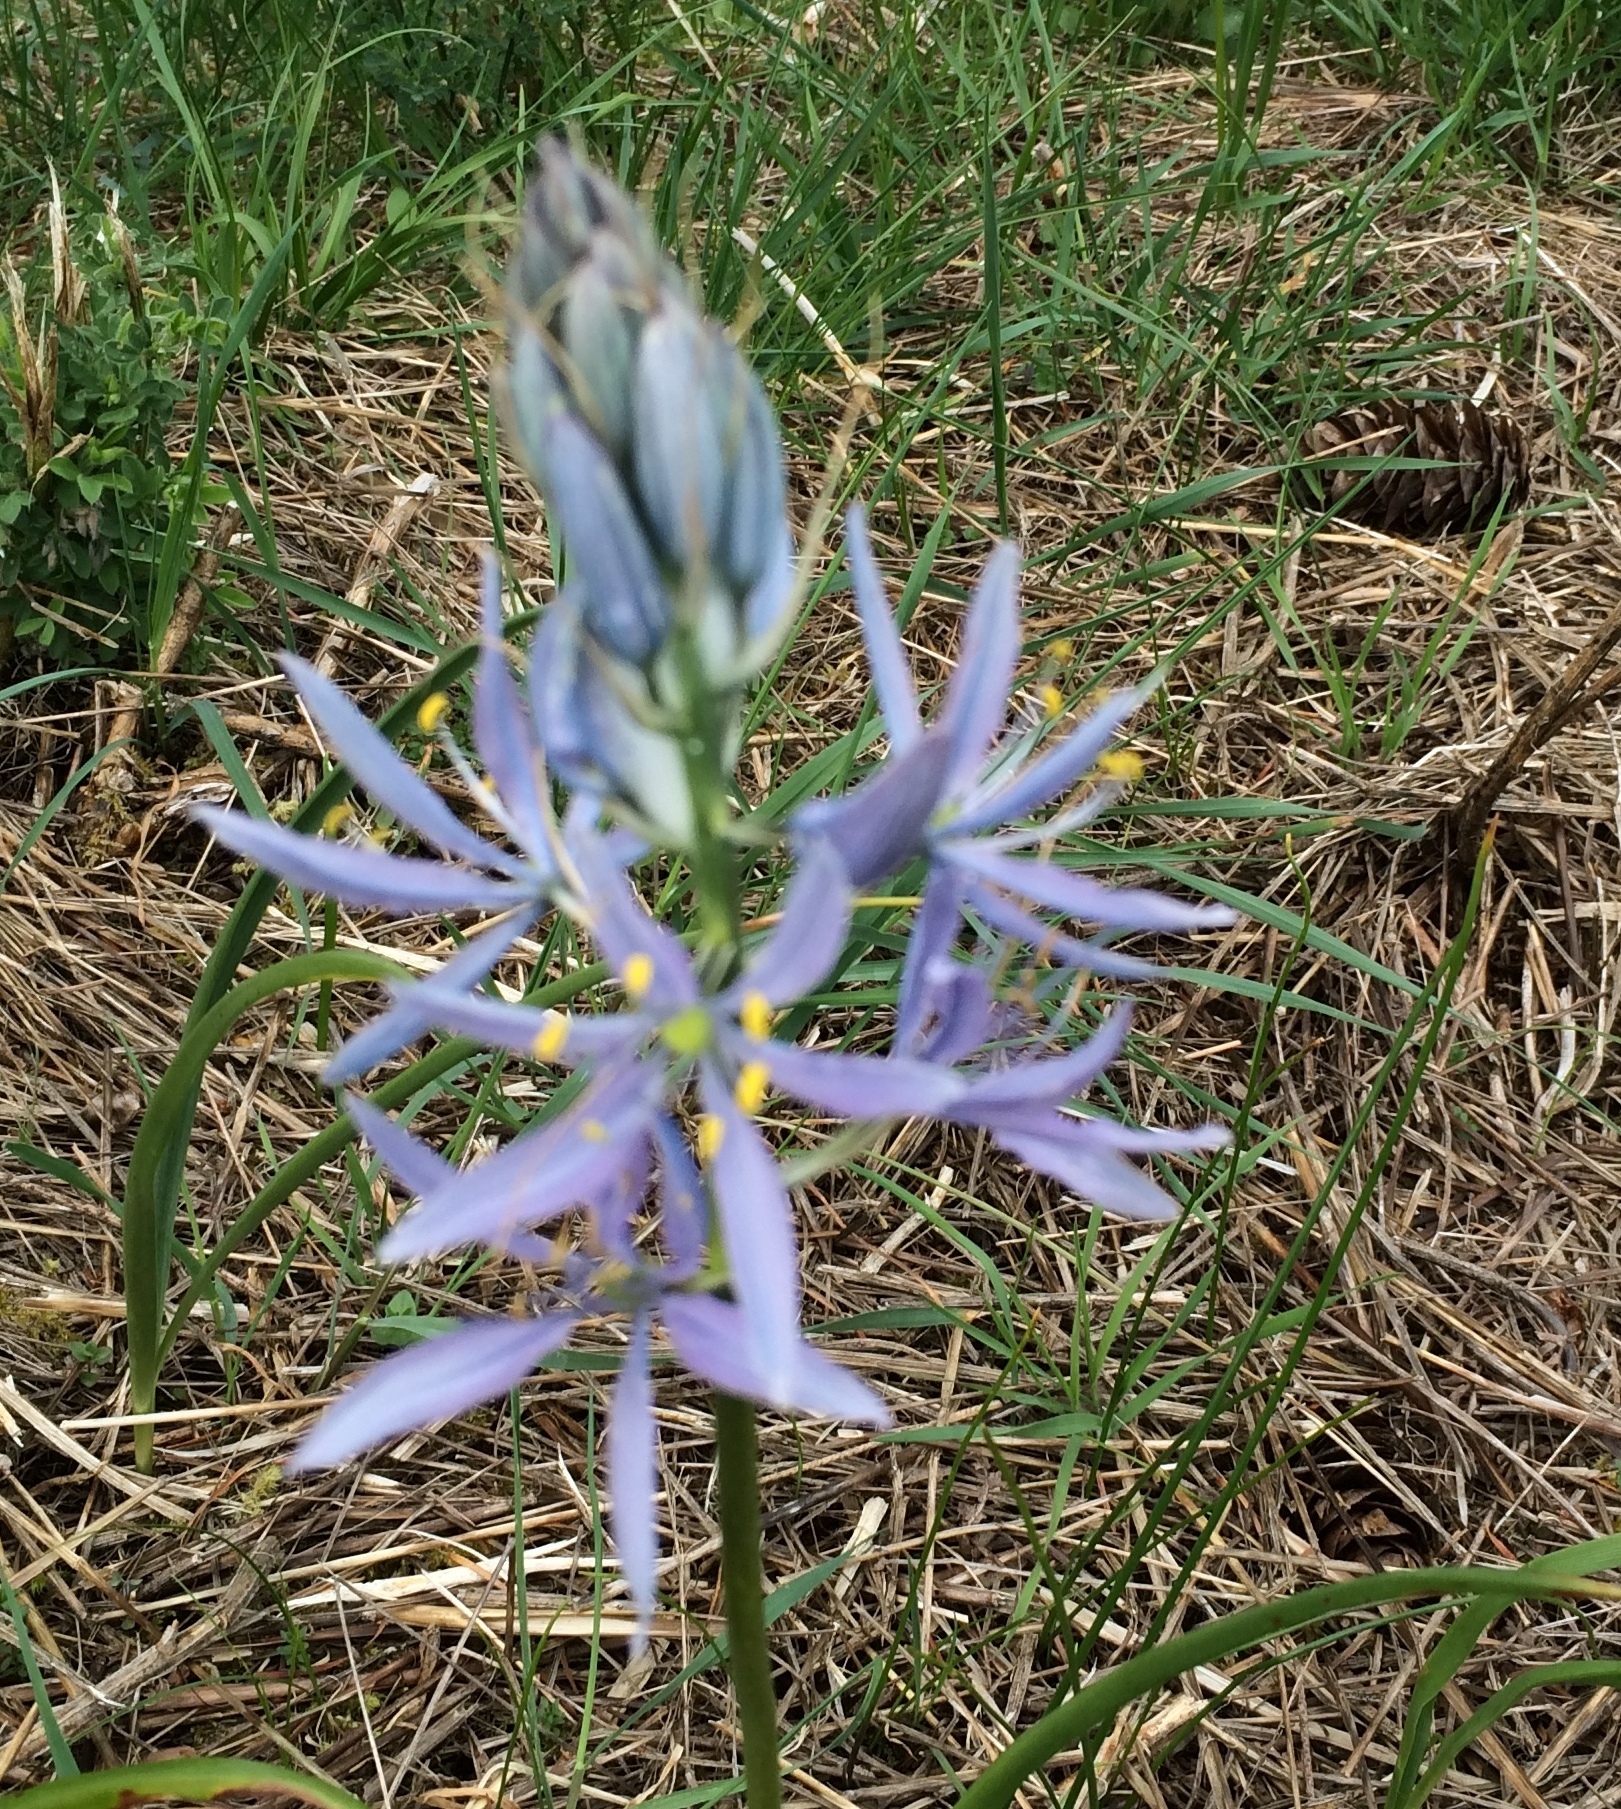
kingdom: Plantae
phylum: Tracheophyta
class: Liliopsida
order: Asparagales
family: Asparagaceae
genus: Camassia
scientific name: Camassia quamash
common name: Common camas
